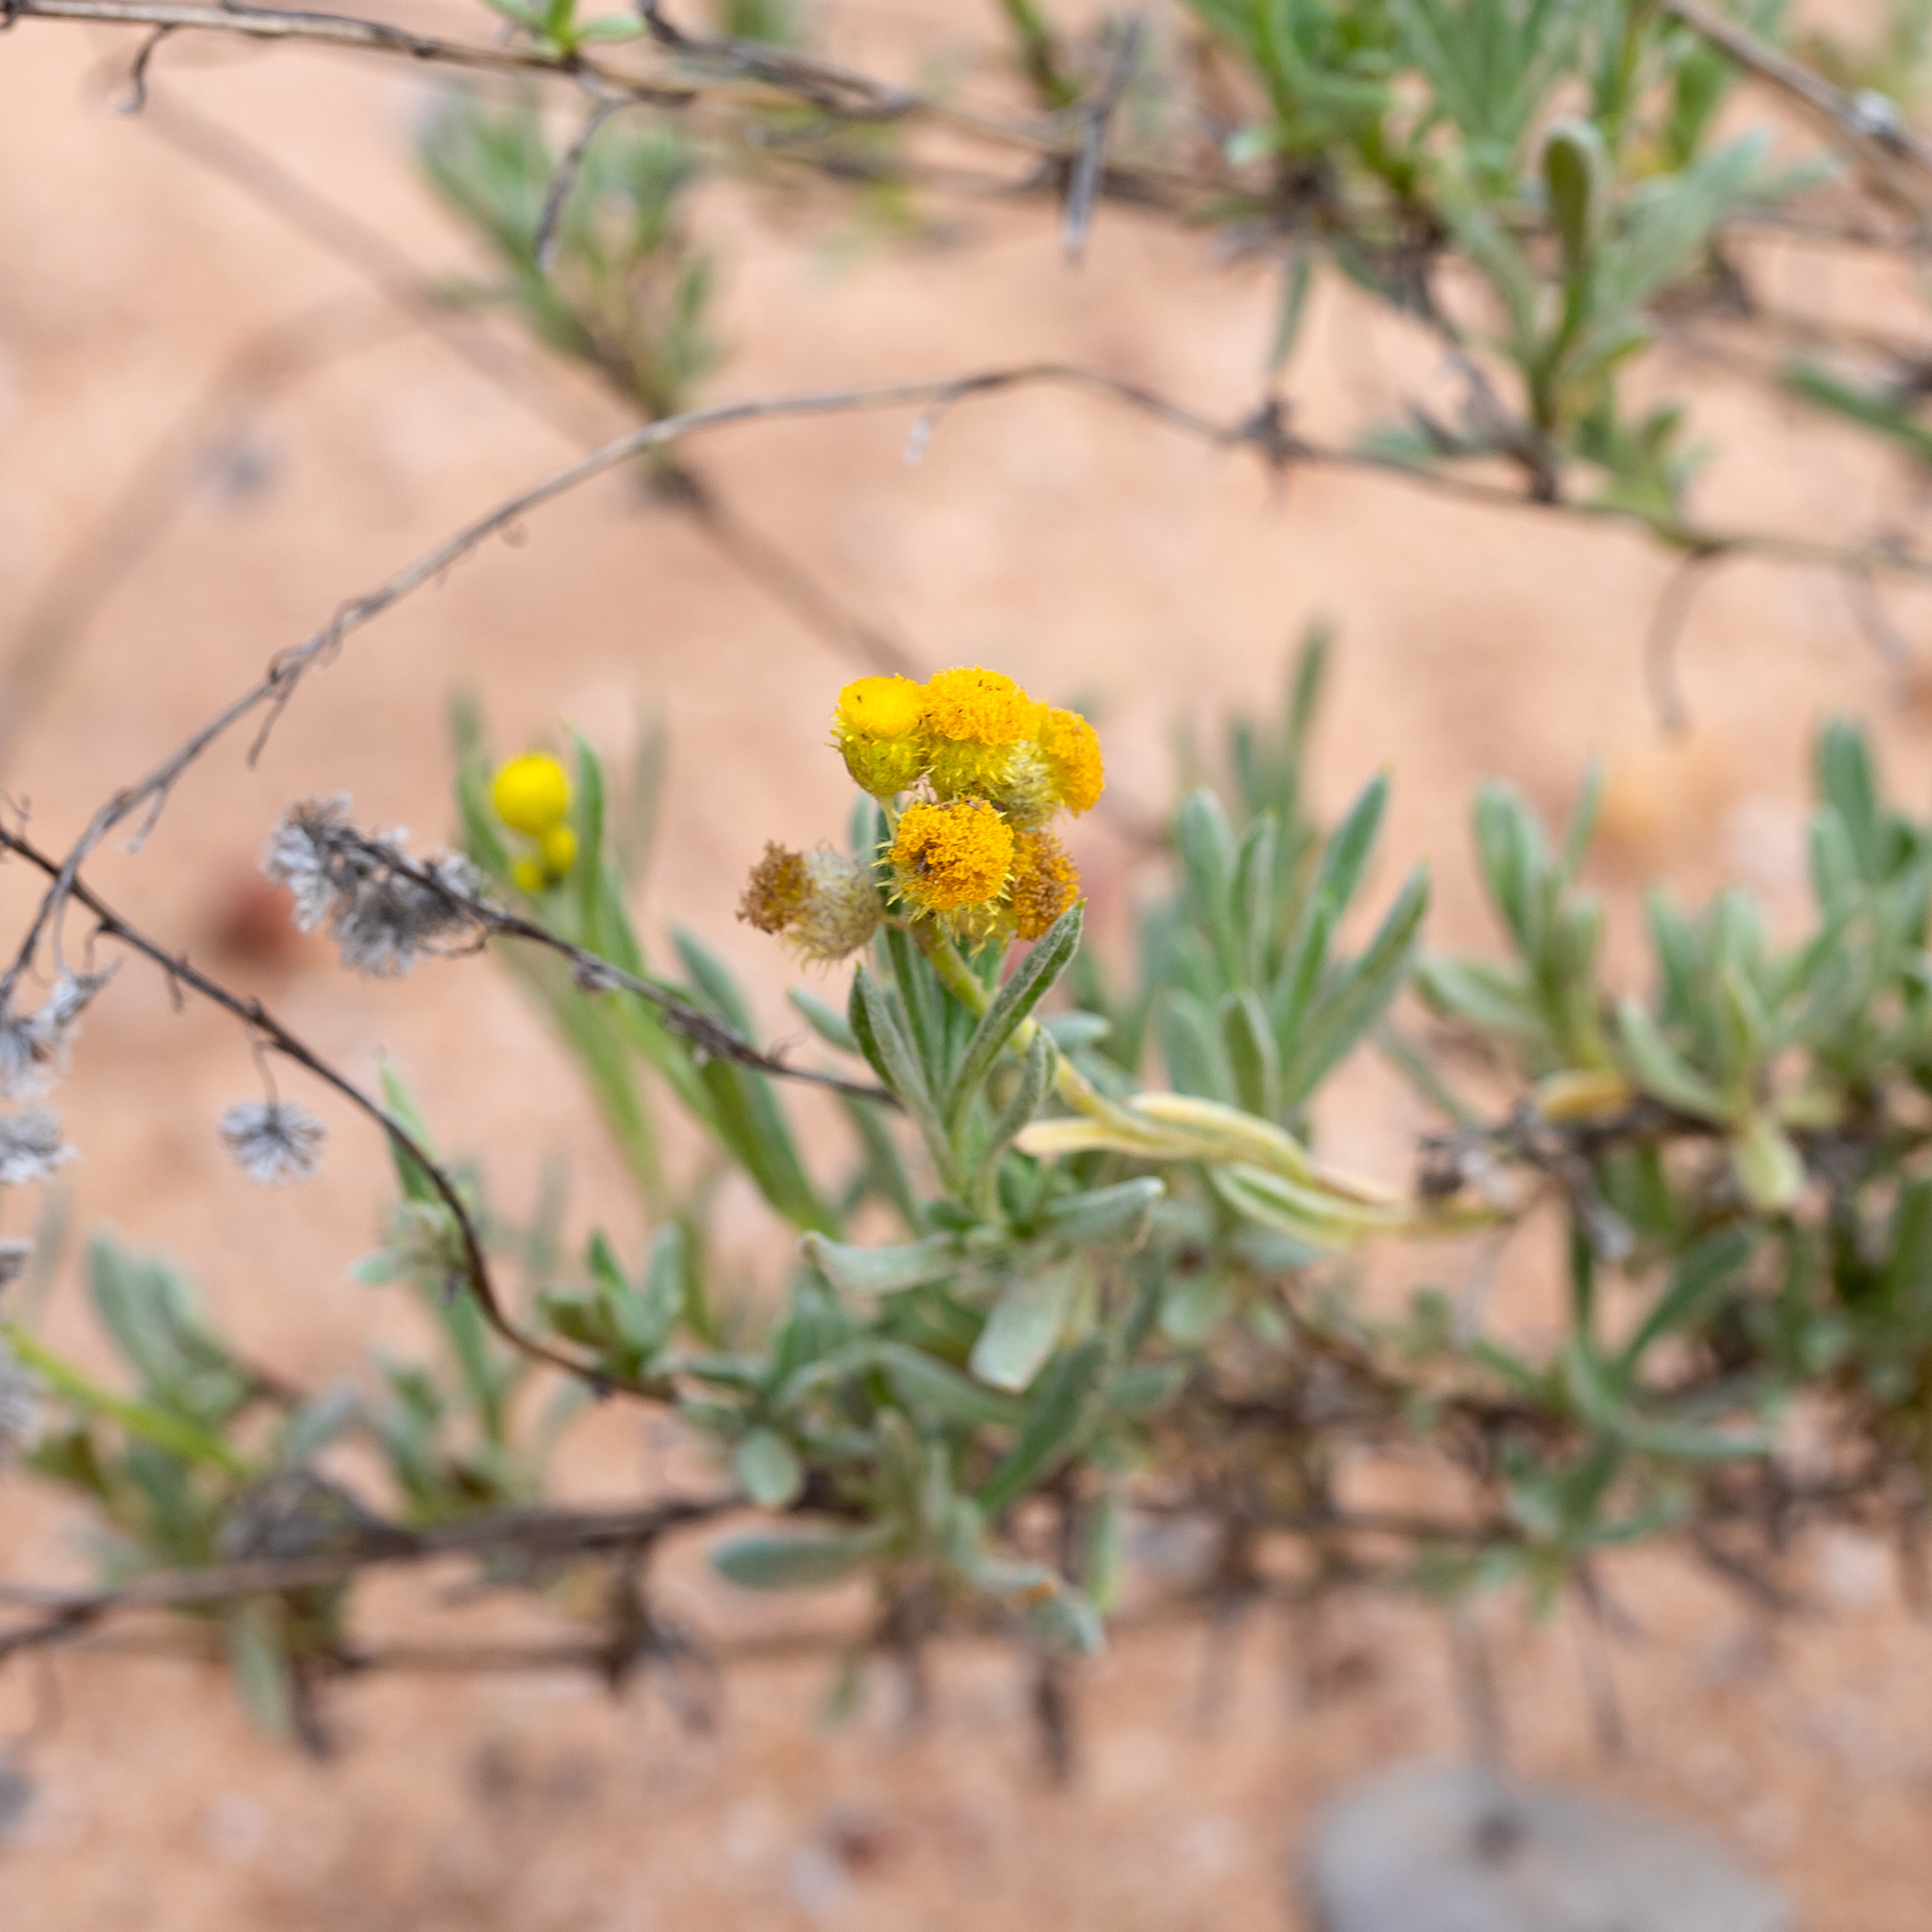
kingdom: Plantae
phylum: Tracheophyta
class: Magnoliopsida
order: Asterales
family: Asteraceae
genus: Chrysocephalum
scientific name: Chrysocephalum apiculatum
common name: Common everlasting
